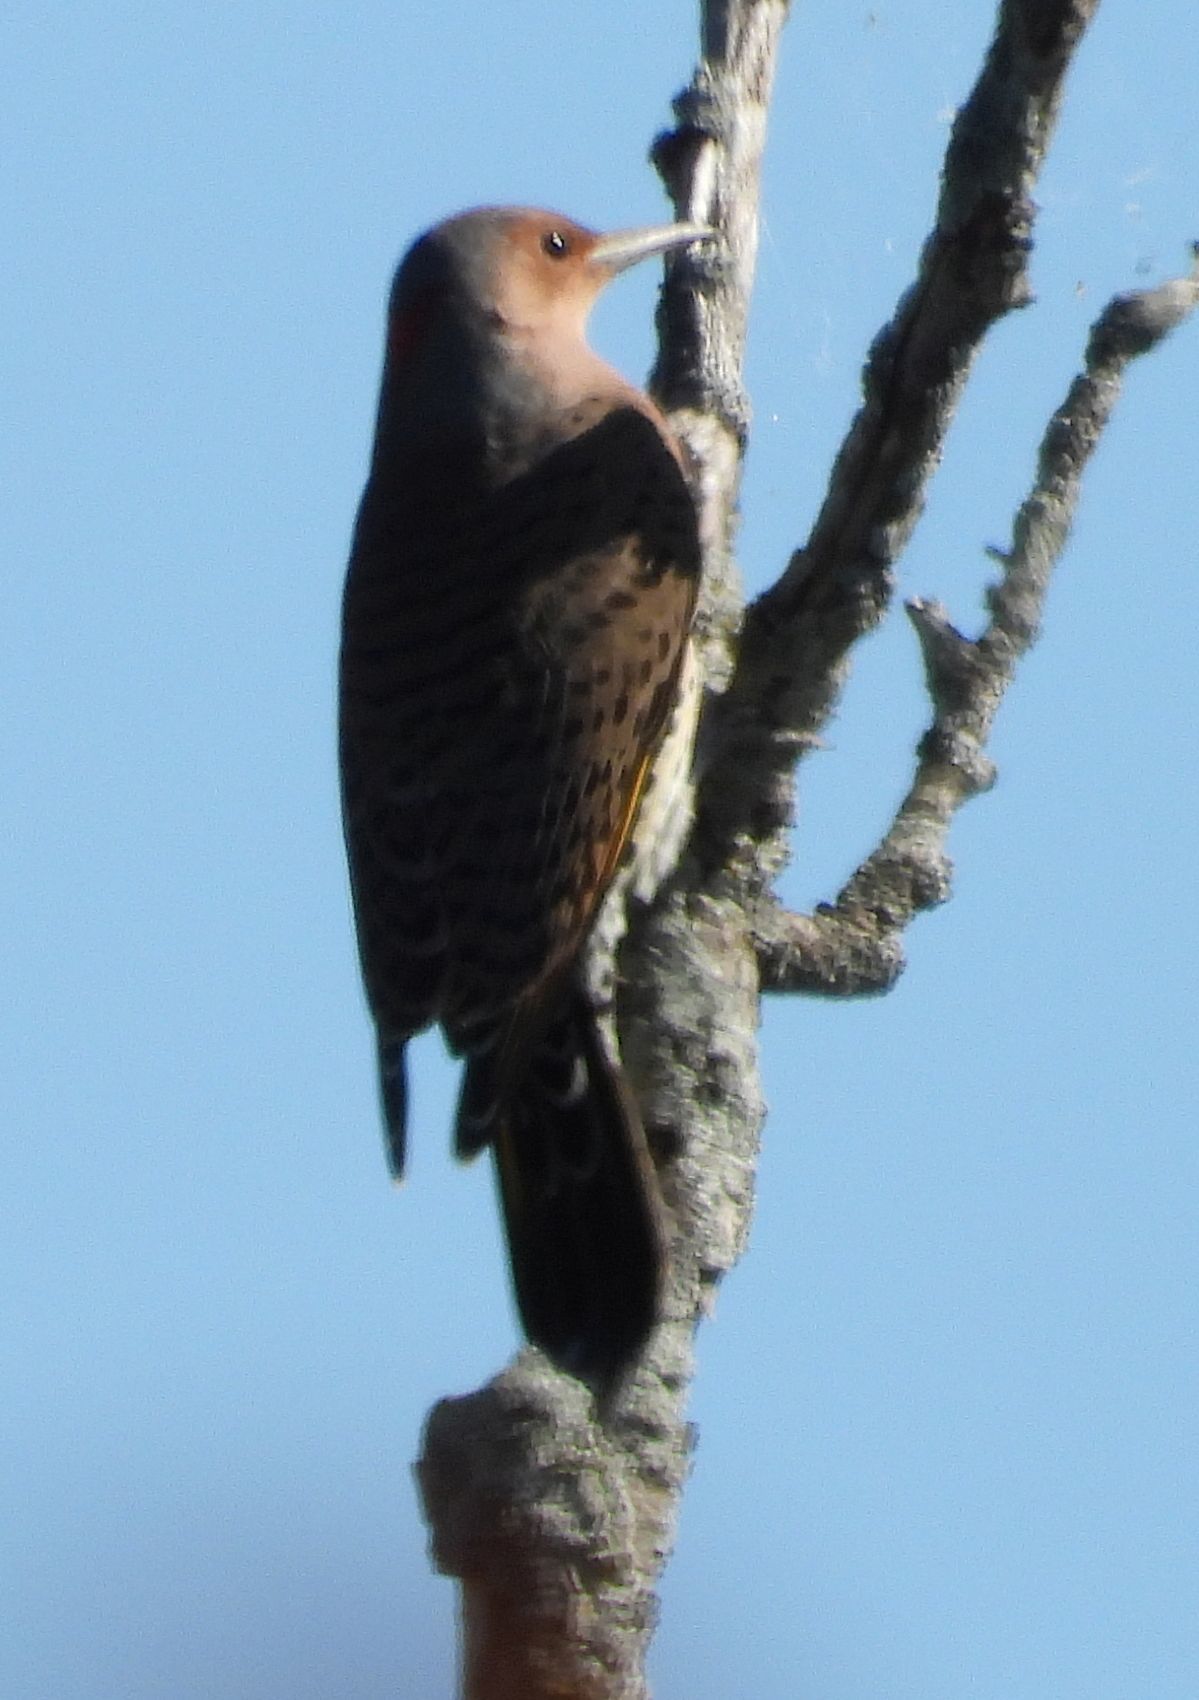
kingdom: Animalia
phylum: Chordata
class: Aves
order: Piciformes
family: Picidae
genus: Colaptes
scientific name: Colaptes auratus
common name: Northern flicker
